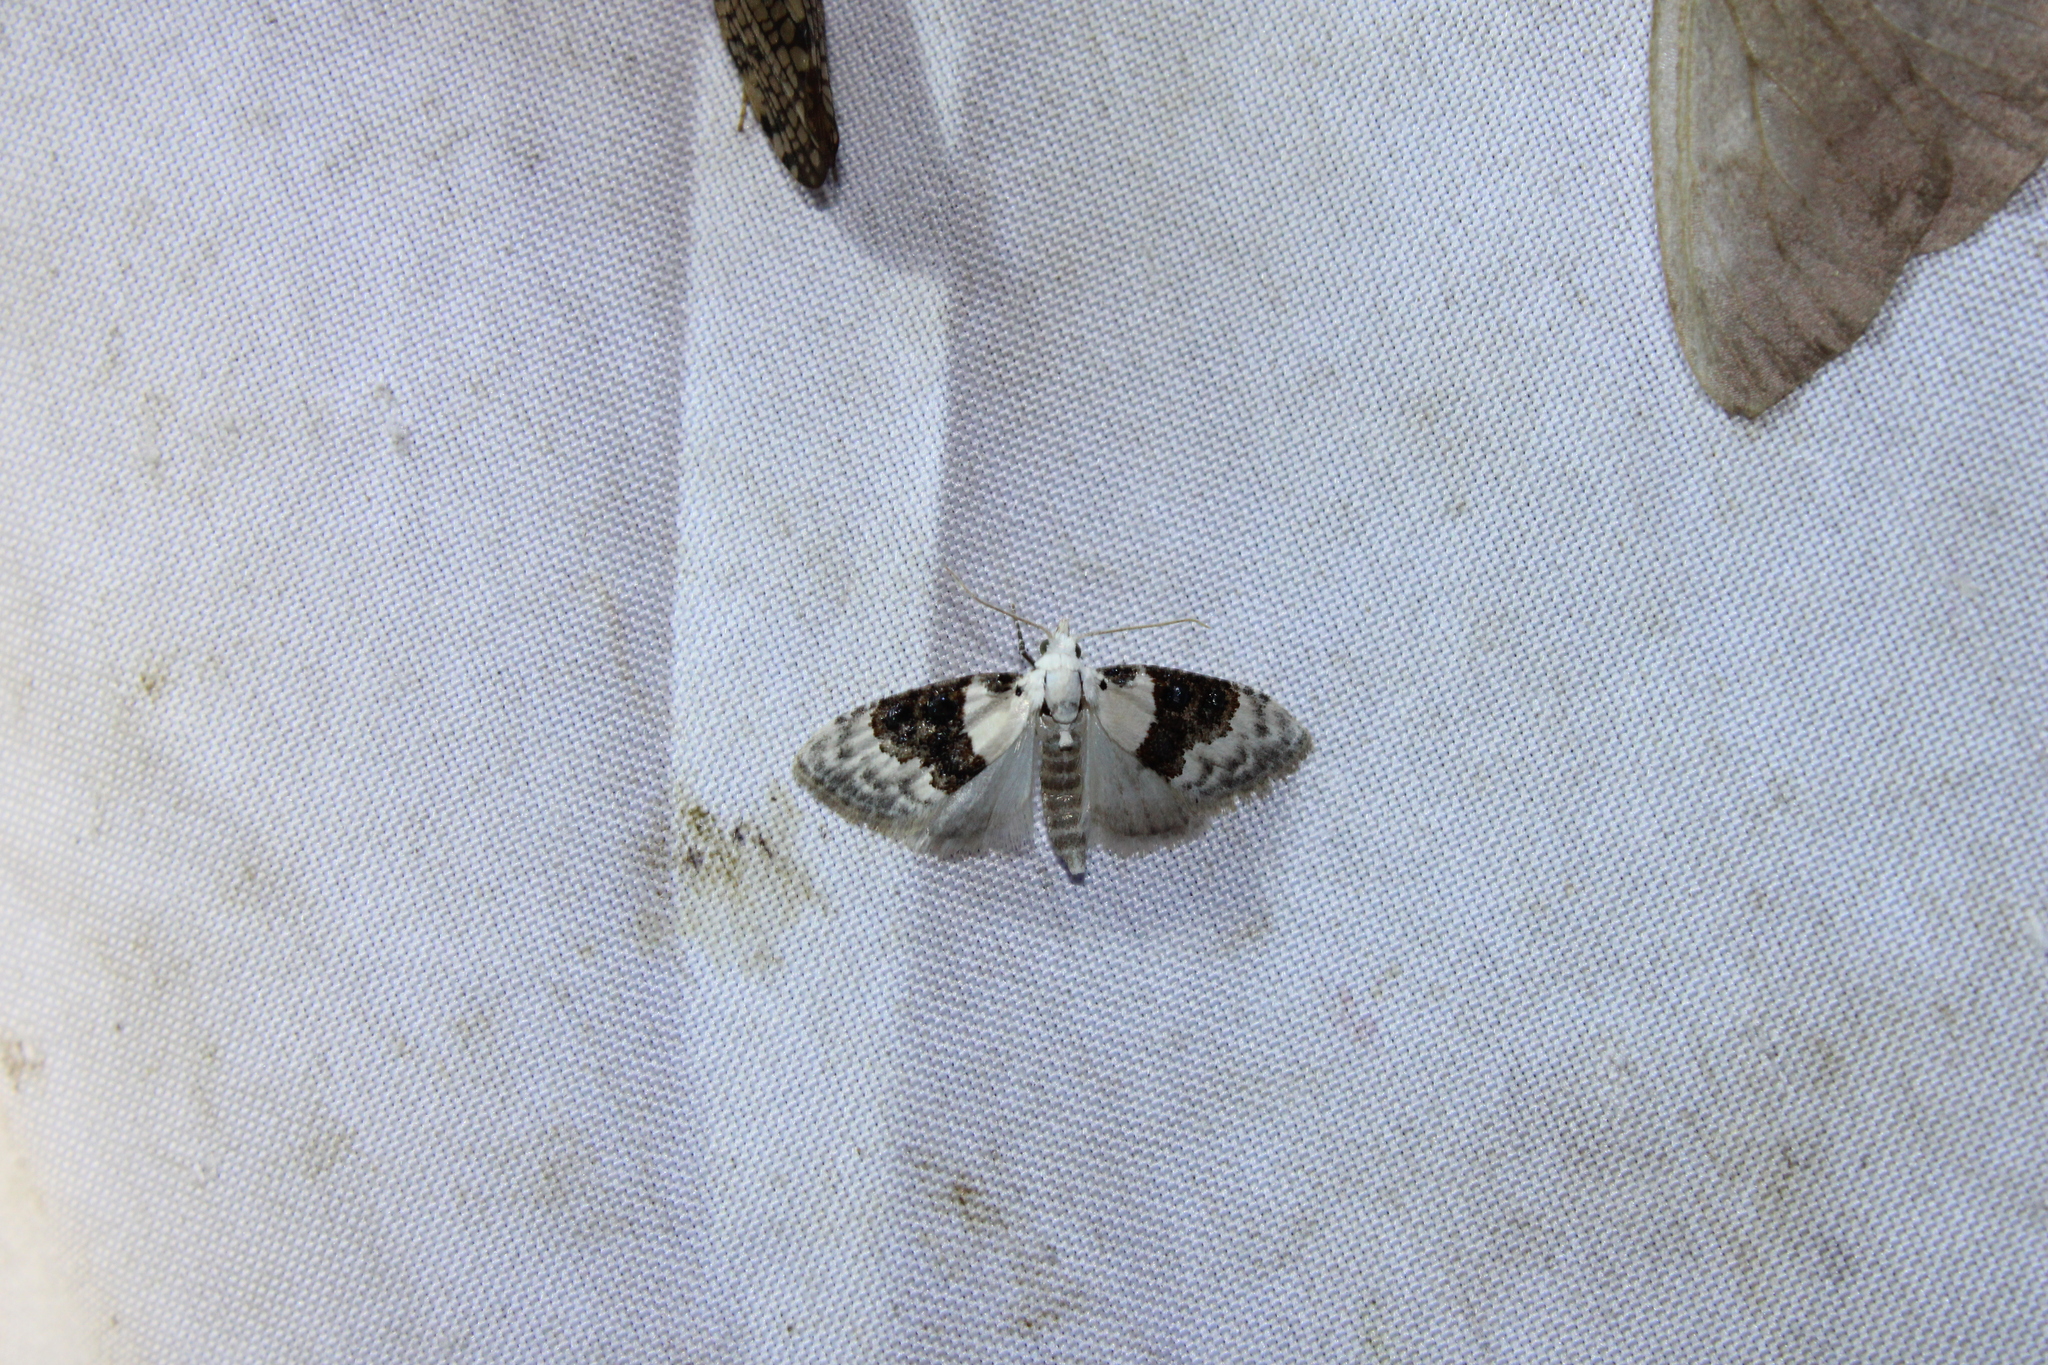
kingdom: Animalia
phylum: Arthropoda
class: Insecta
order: Lepidoptera
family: Nolidae
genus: Nola
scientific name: Nola pustulata
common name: Sharp-blotched nola moth
